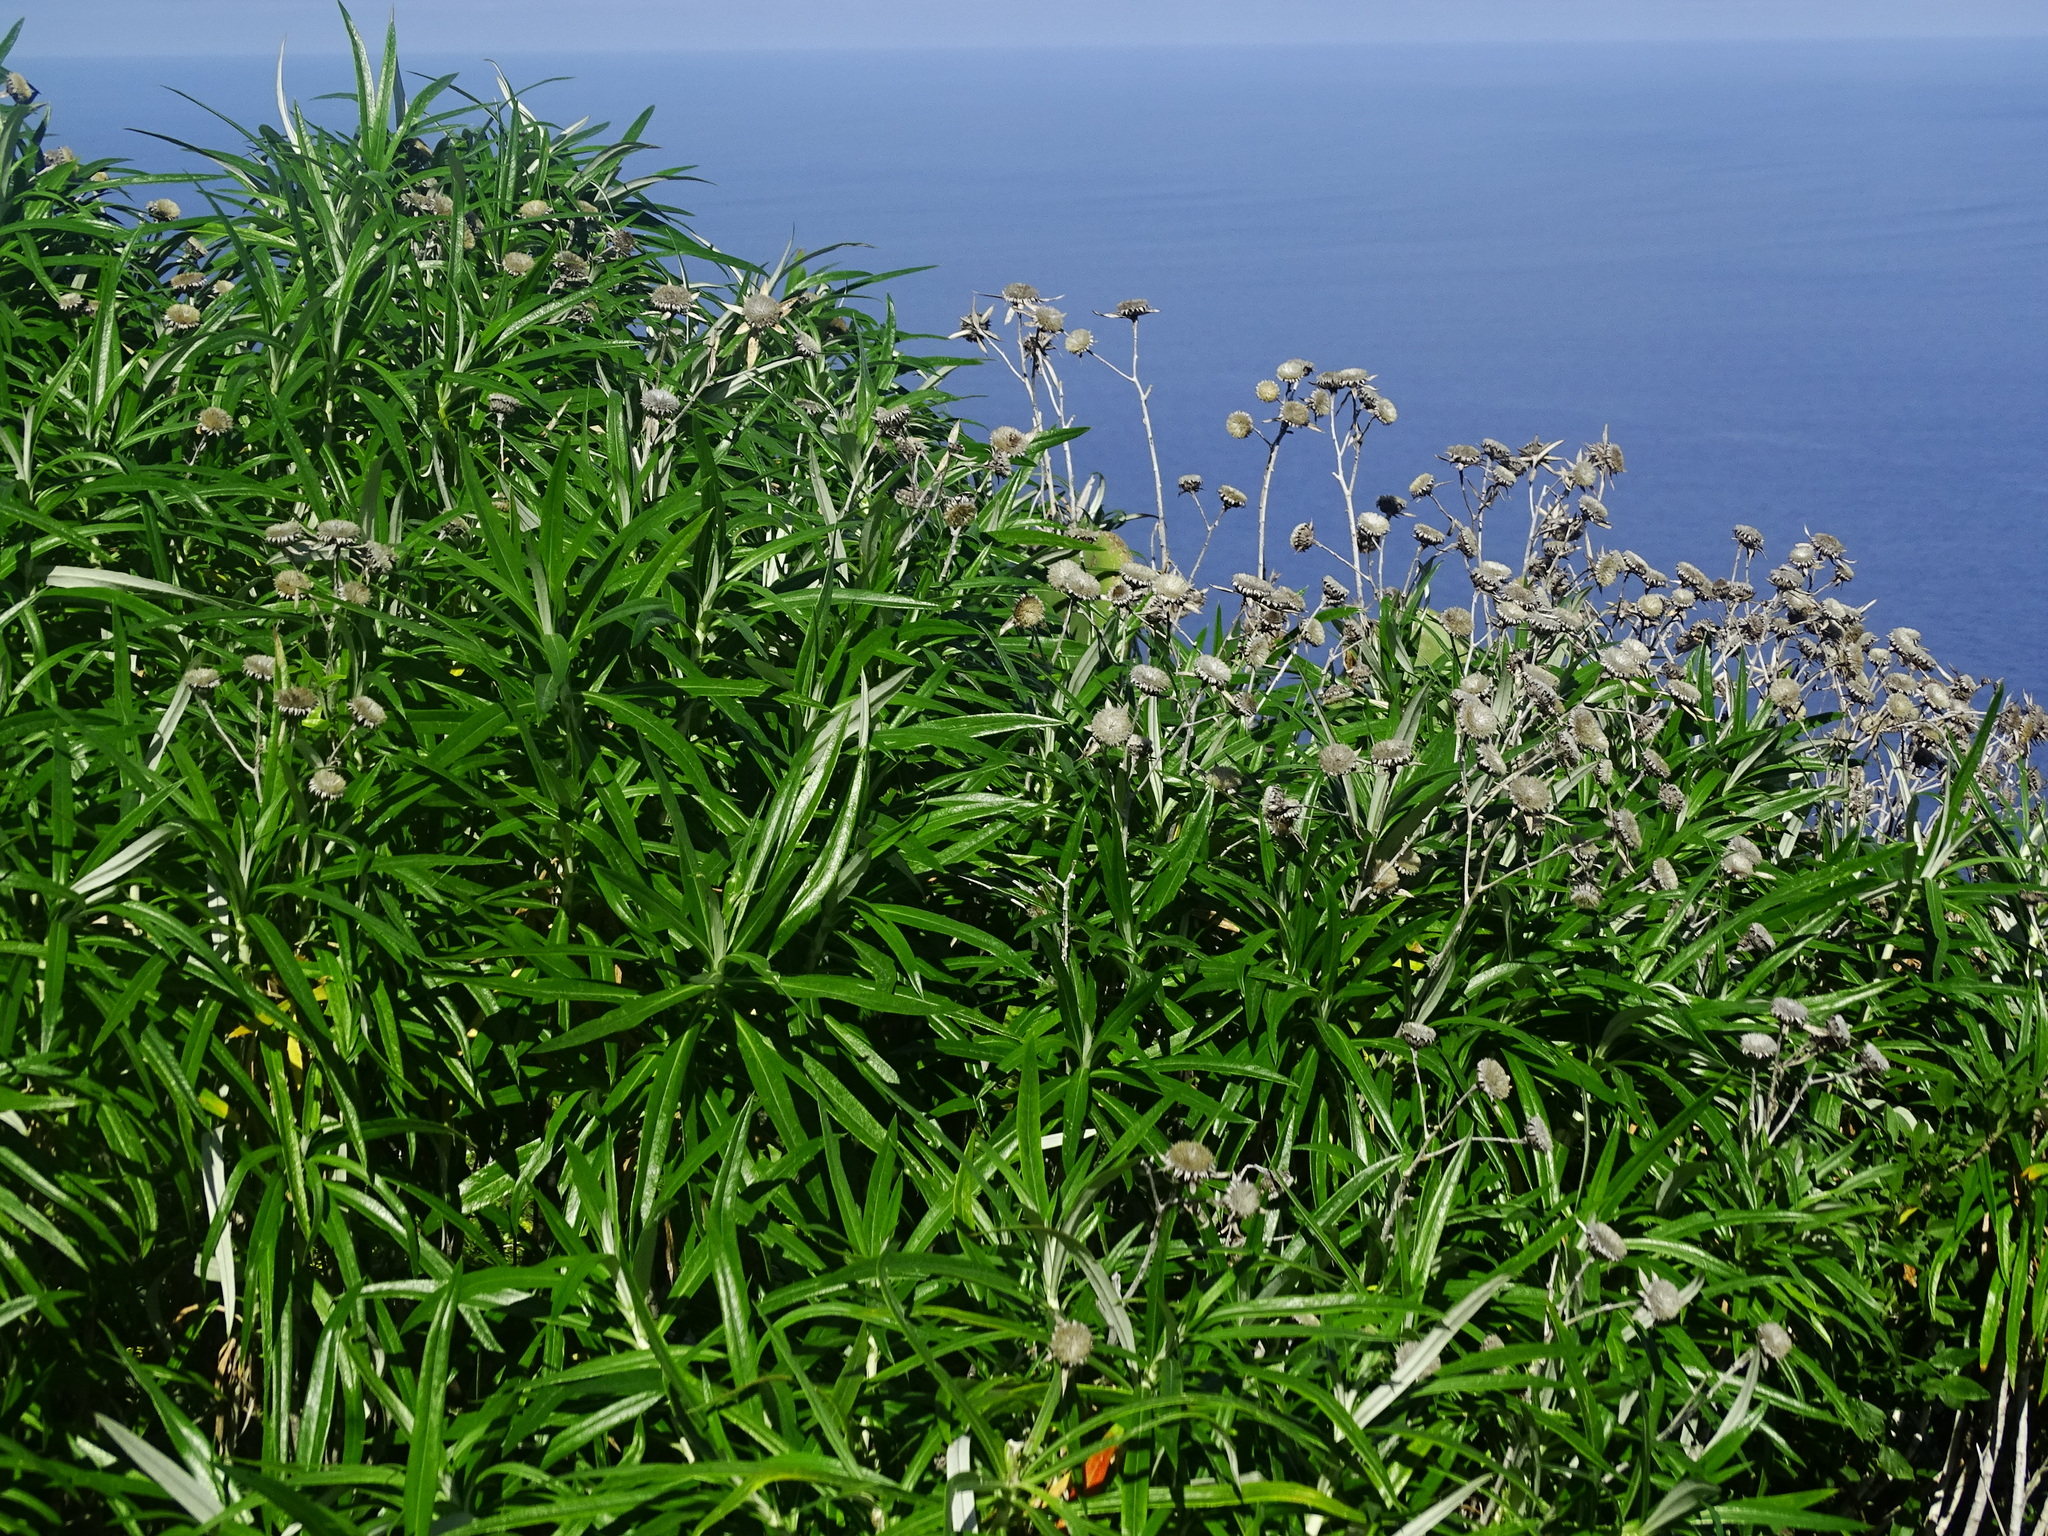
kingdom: Plantae
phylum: Tracheophyta
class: Magnoliopsida
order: Asterales
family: Asteraceae
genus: Carlina
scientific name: Carlina falcata
